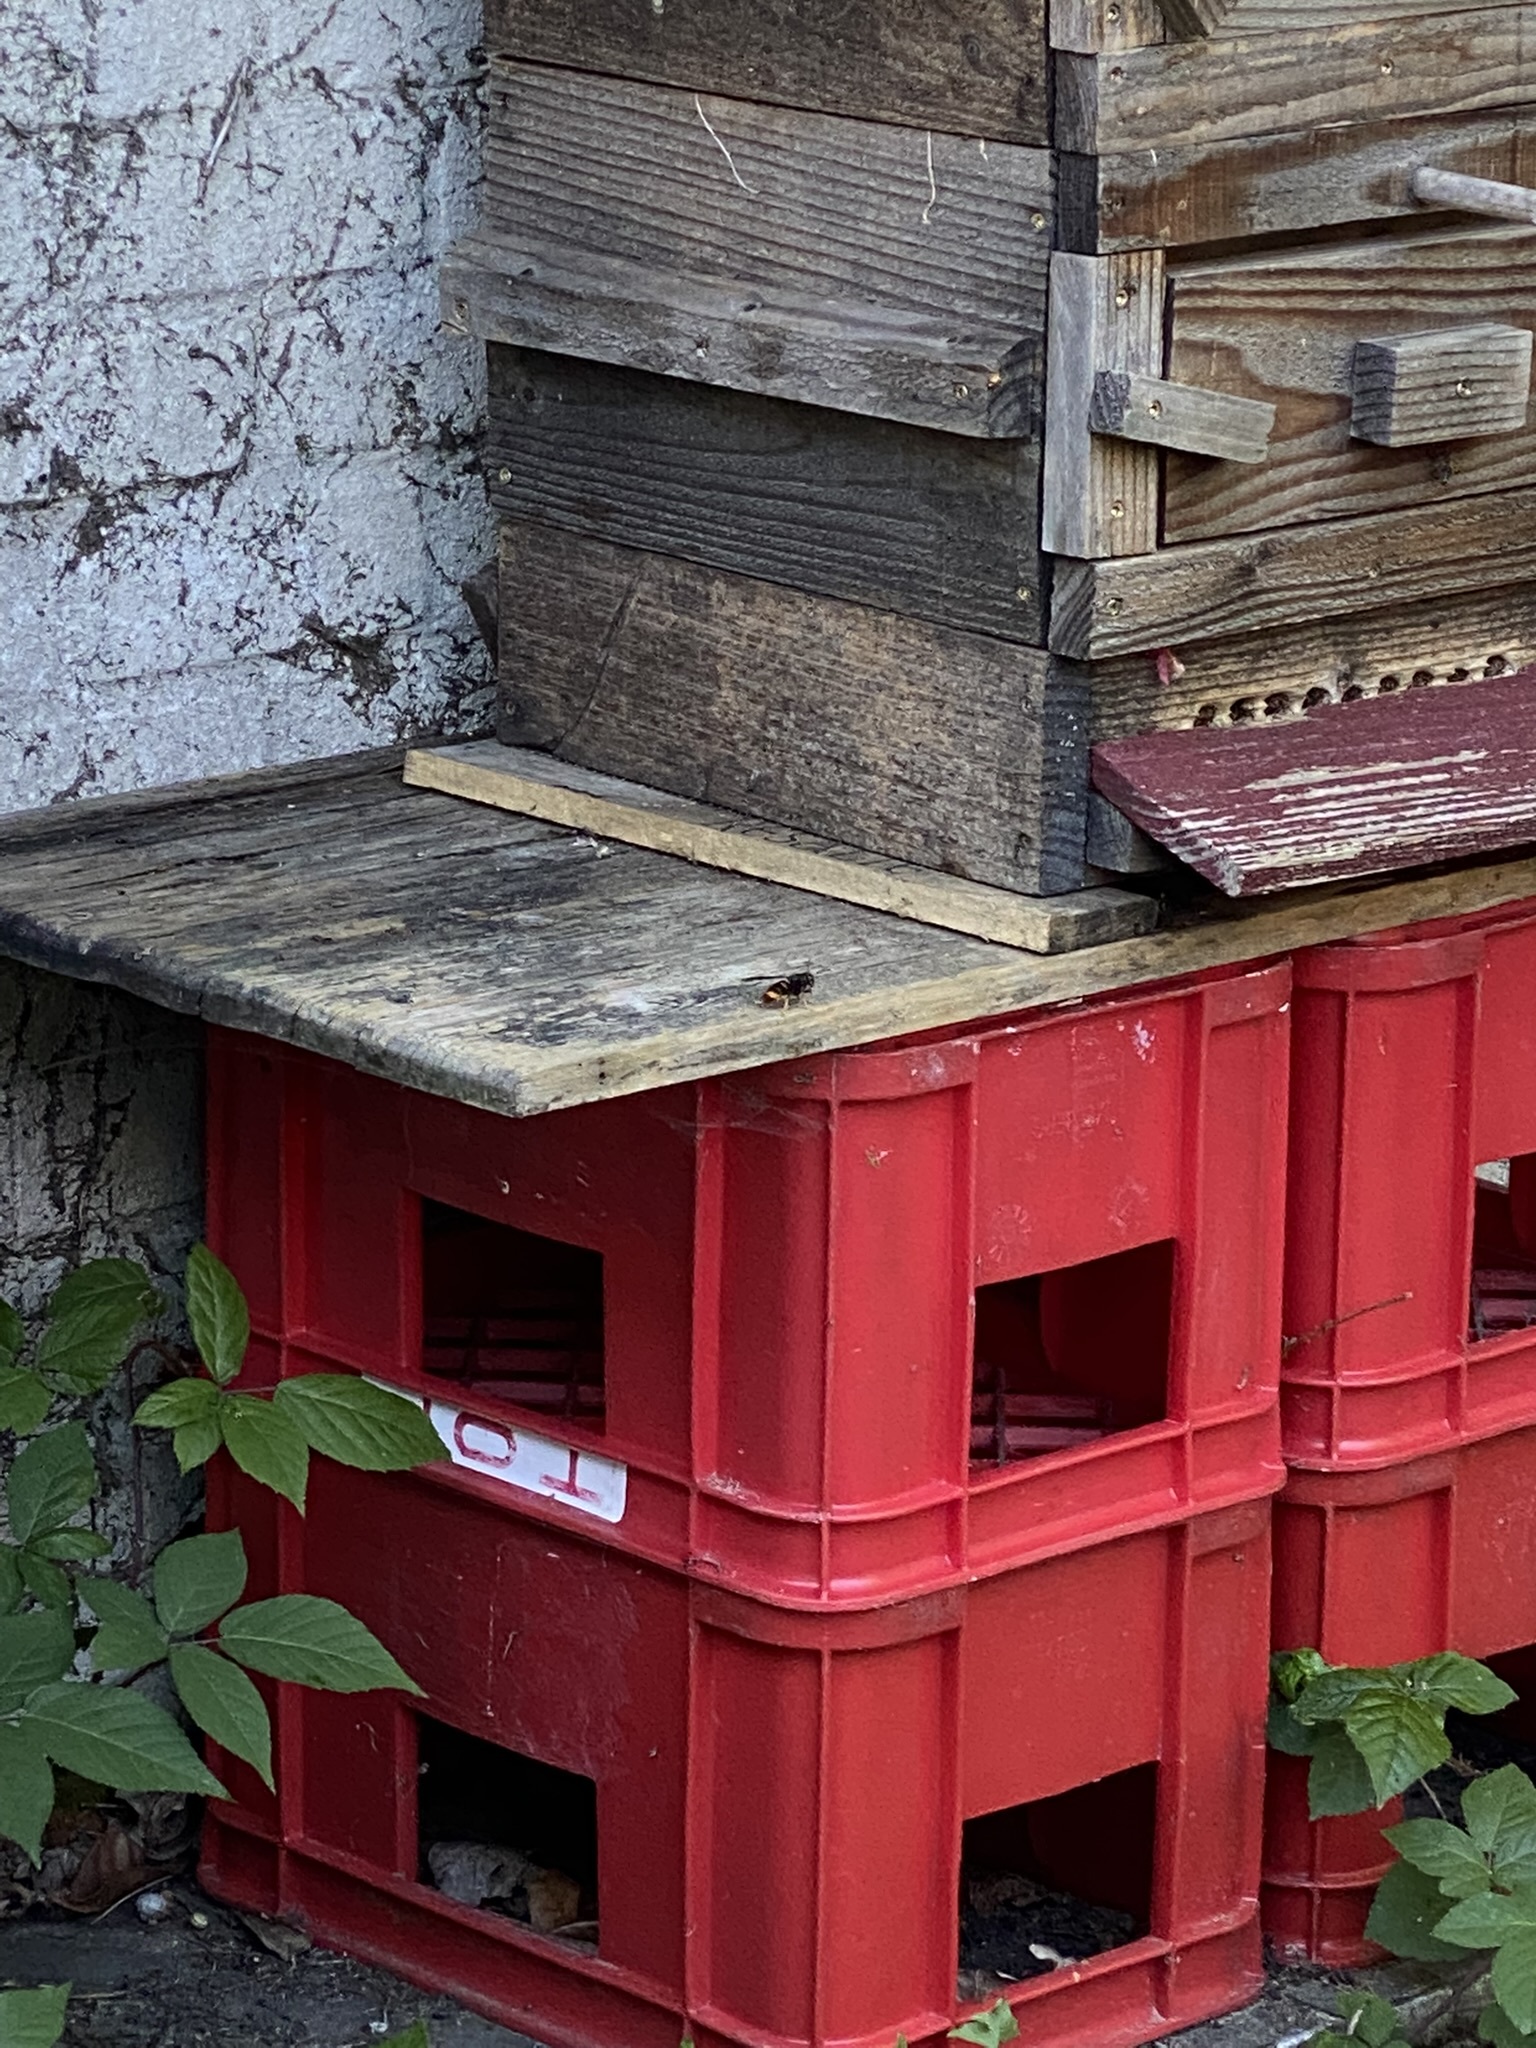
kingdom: Animalia
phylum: Arthropoda
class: Insecta
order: Hymenoptera
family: Vespidae
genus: Vespa
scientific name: Vespa velutina
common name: Asian hornet
